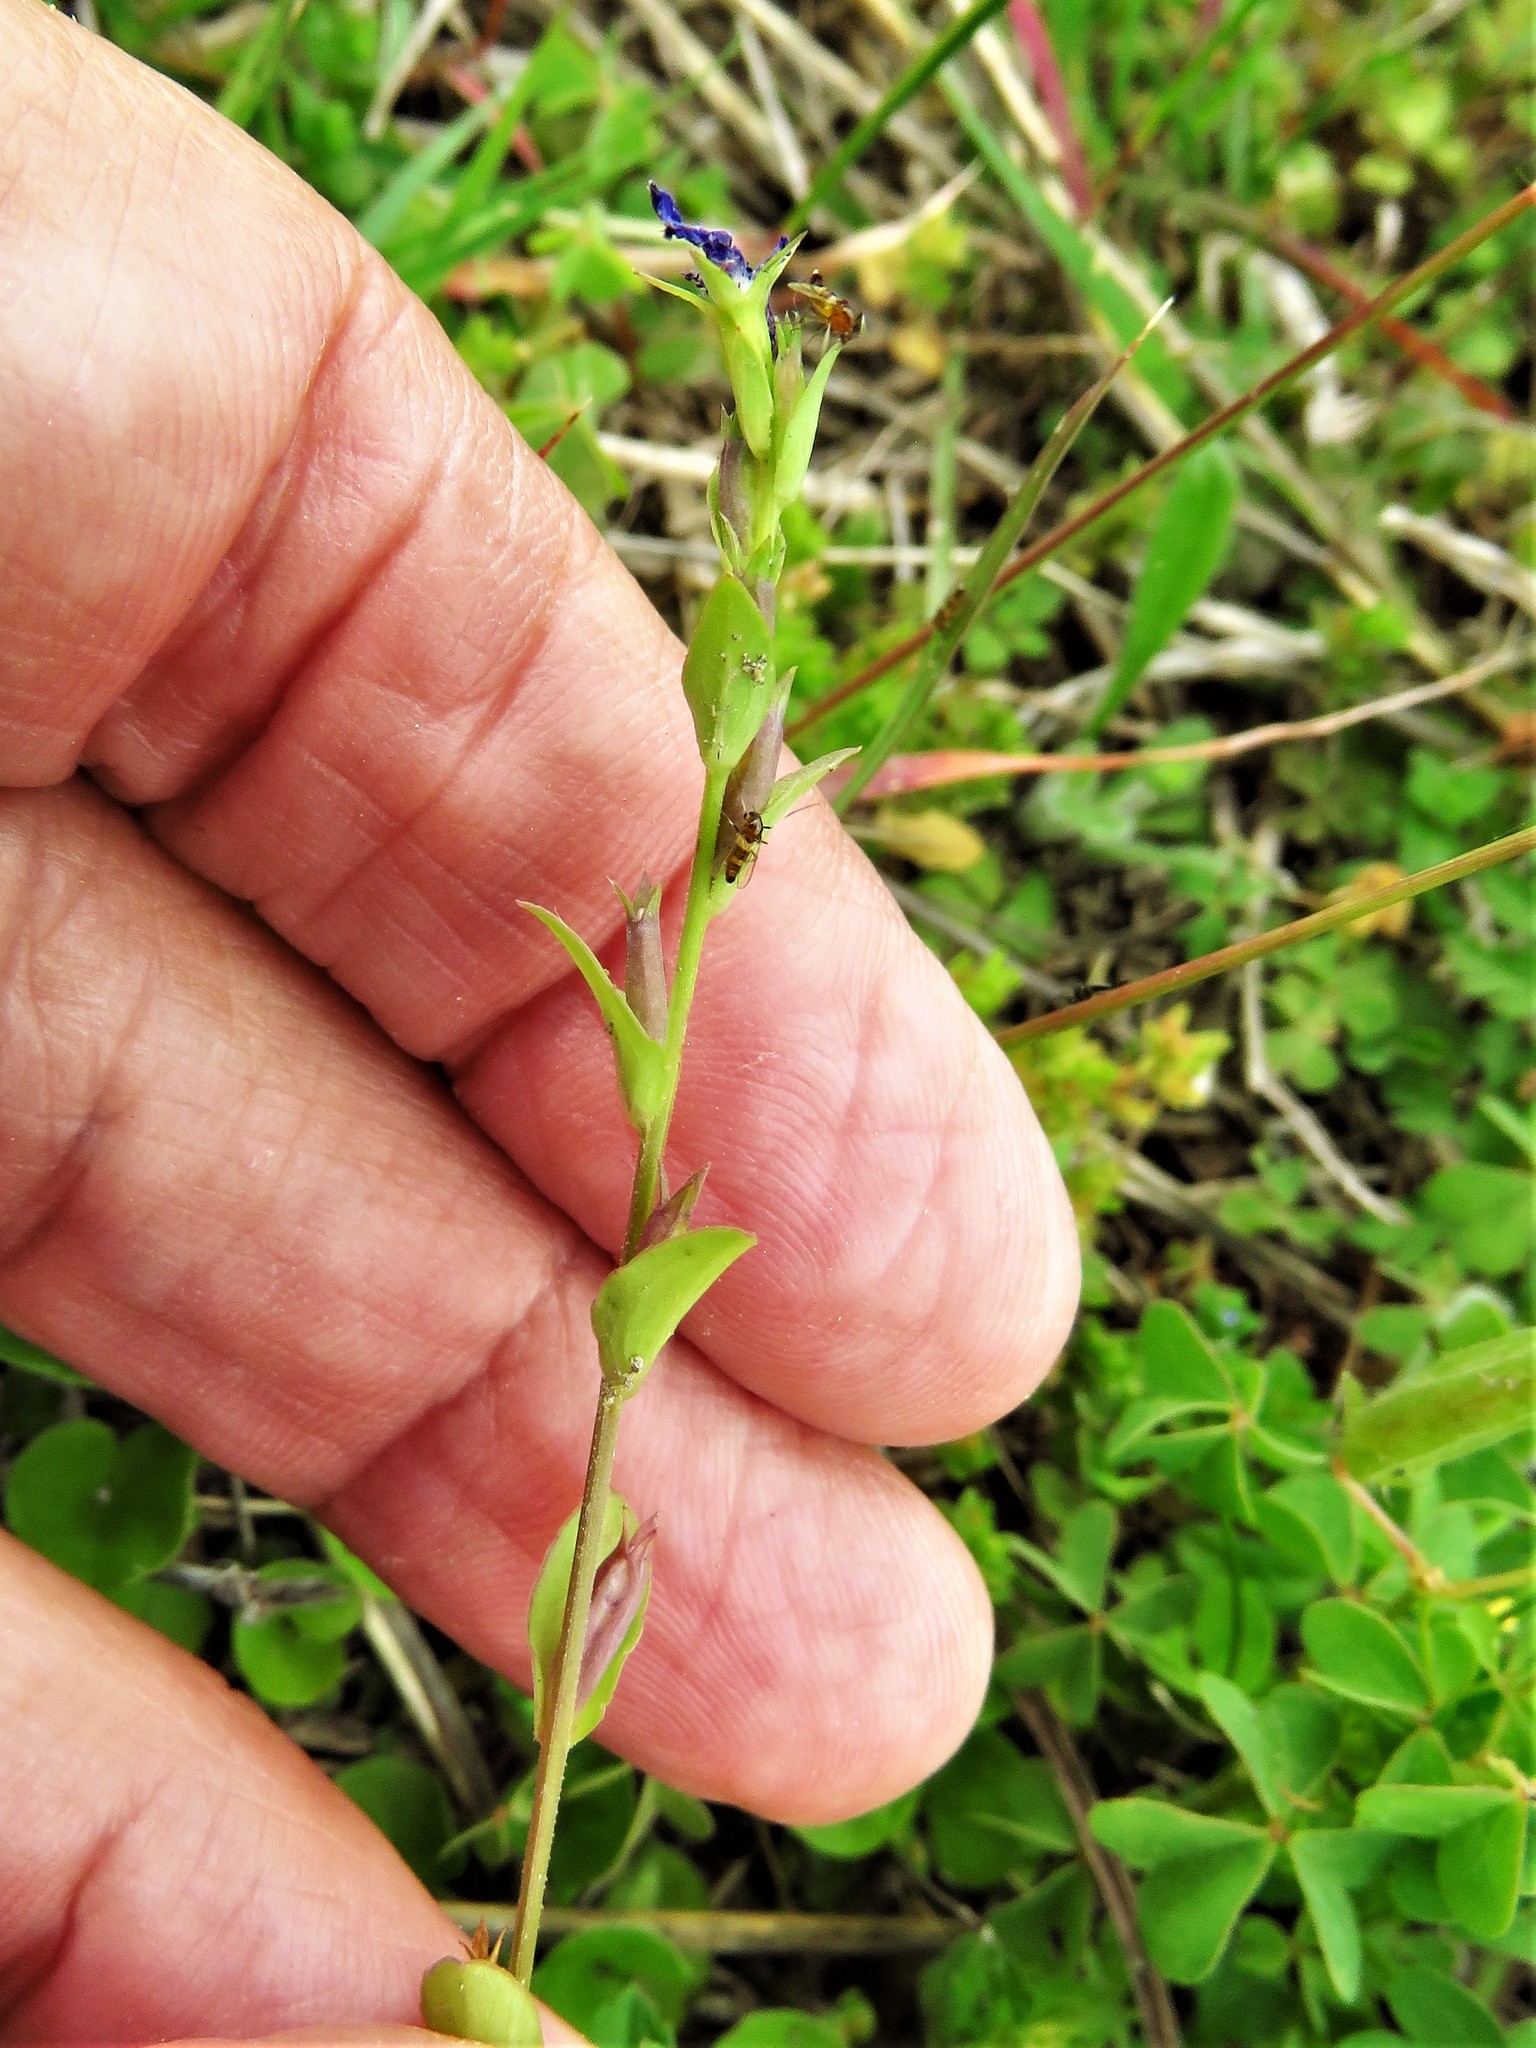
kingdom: Plantae
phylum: Tracheophyta
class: Magnoliopsida
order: Asterales
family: Campanulaceae
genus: Triodanis
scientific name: Triodanis biflora
